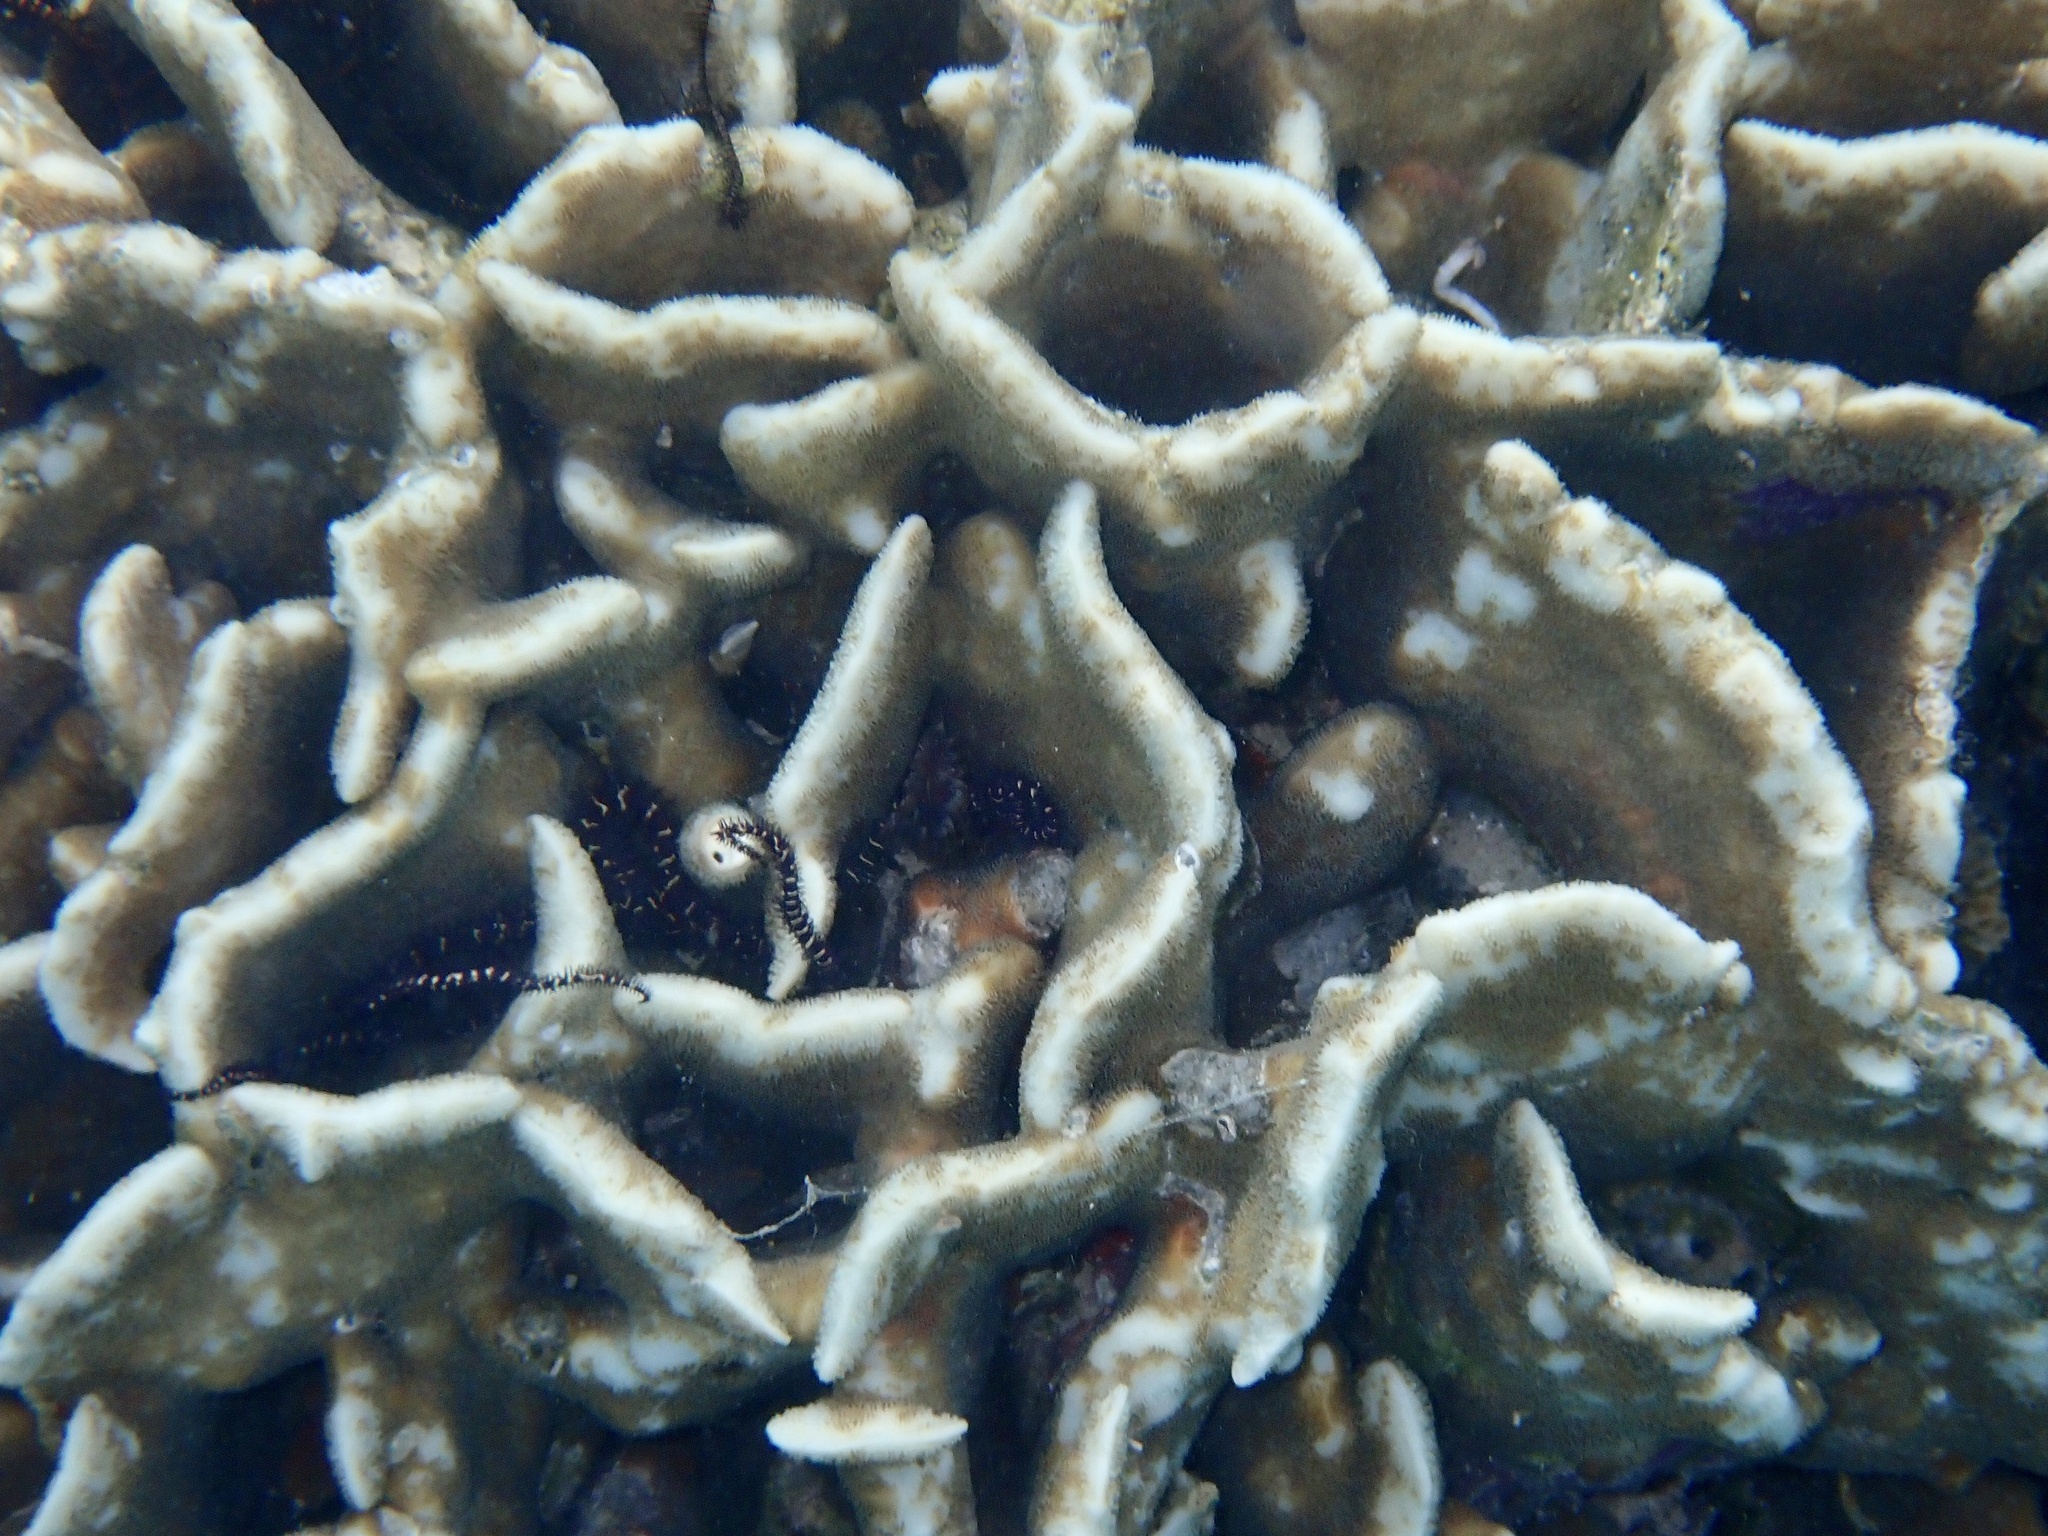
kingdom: Animalia
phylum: Cnidaria
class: Anthozoa
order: Scleractinia
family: Agariciidae
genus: Pavona
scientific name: Pavona decussata
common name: Leaf coral
